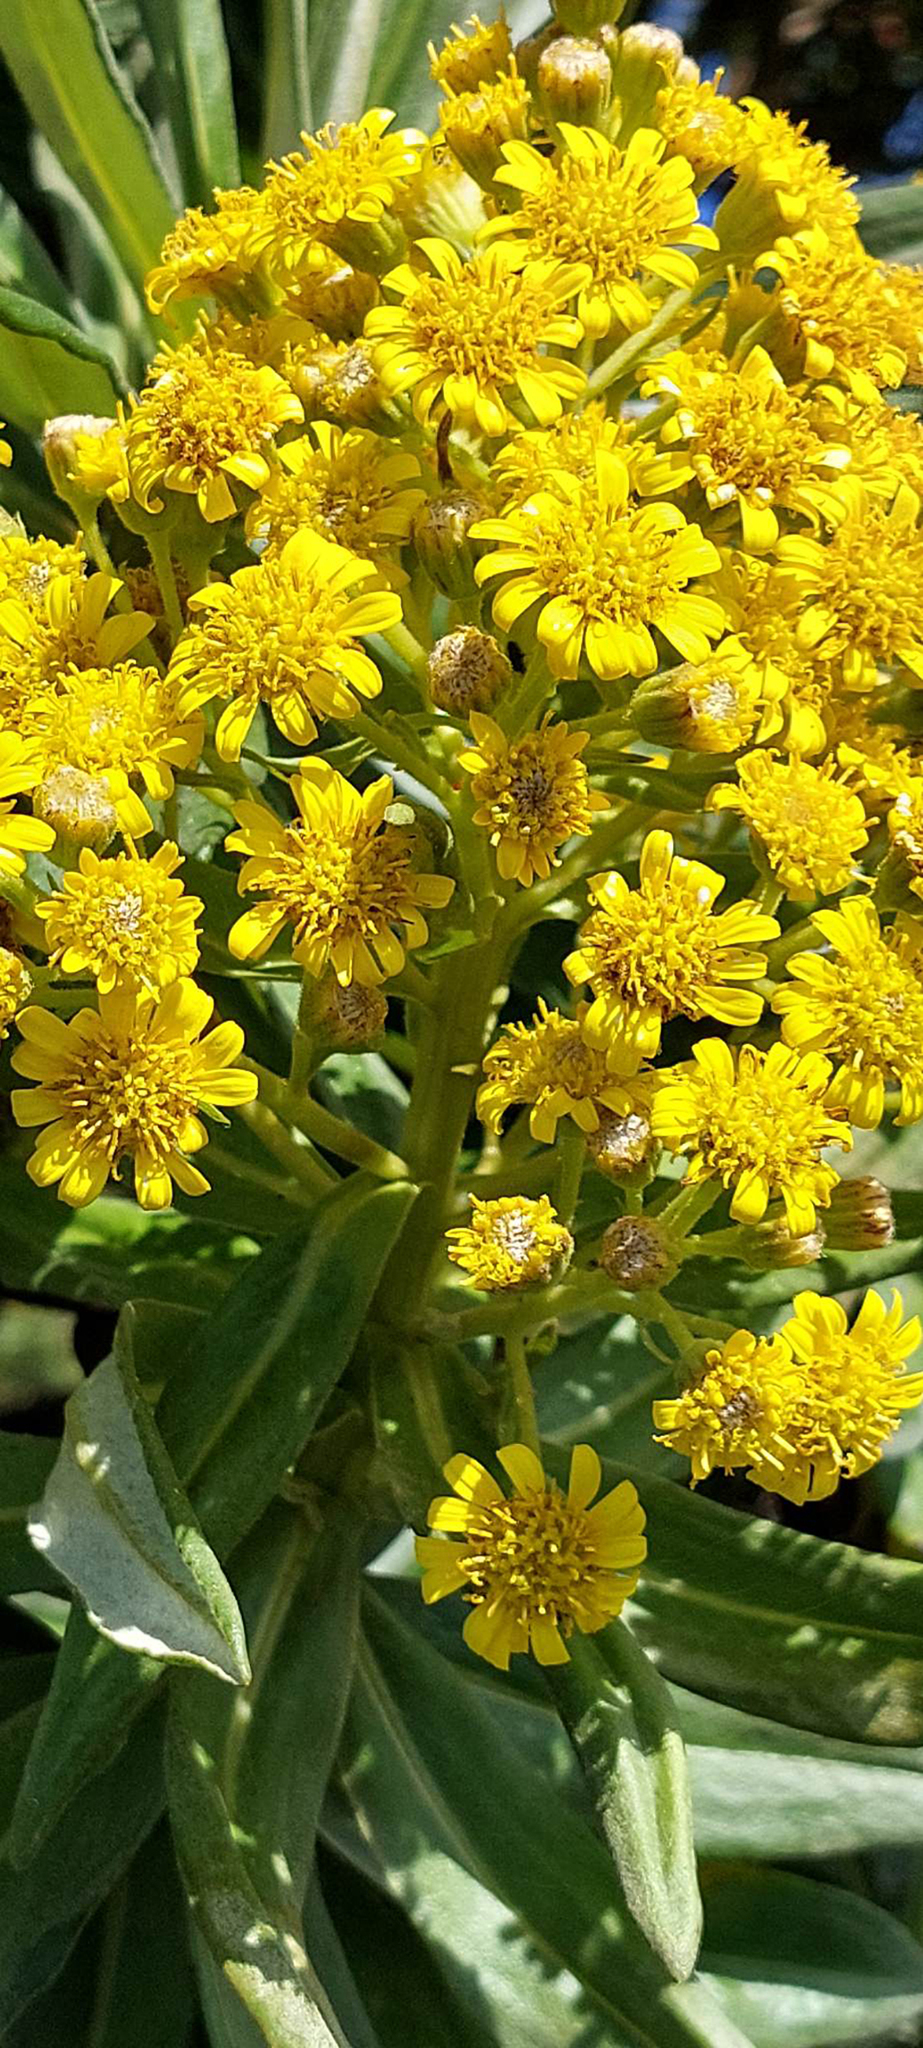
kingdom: Plantae
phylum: Tracheophyta
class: Magnoliopsida
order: Asterales
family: Asteraceae
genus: Brachyglottis
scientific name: Brachyglottis huntii
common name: Chatham island christmas tree
